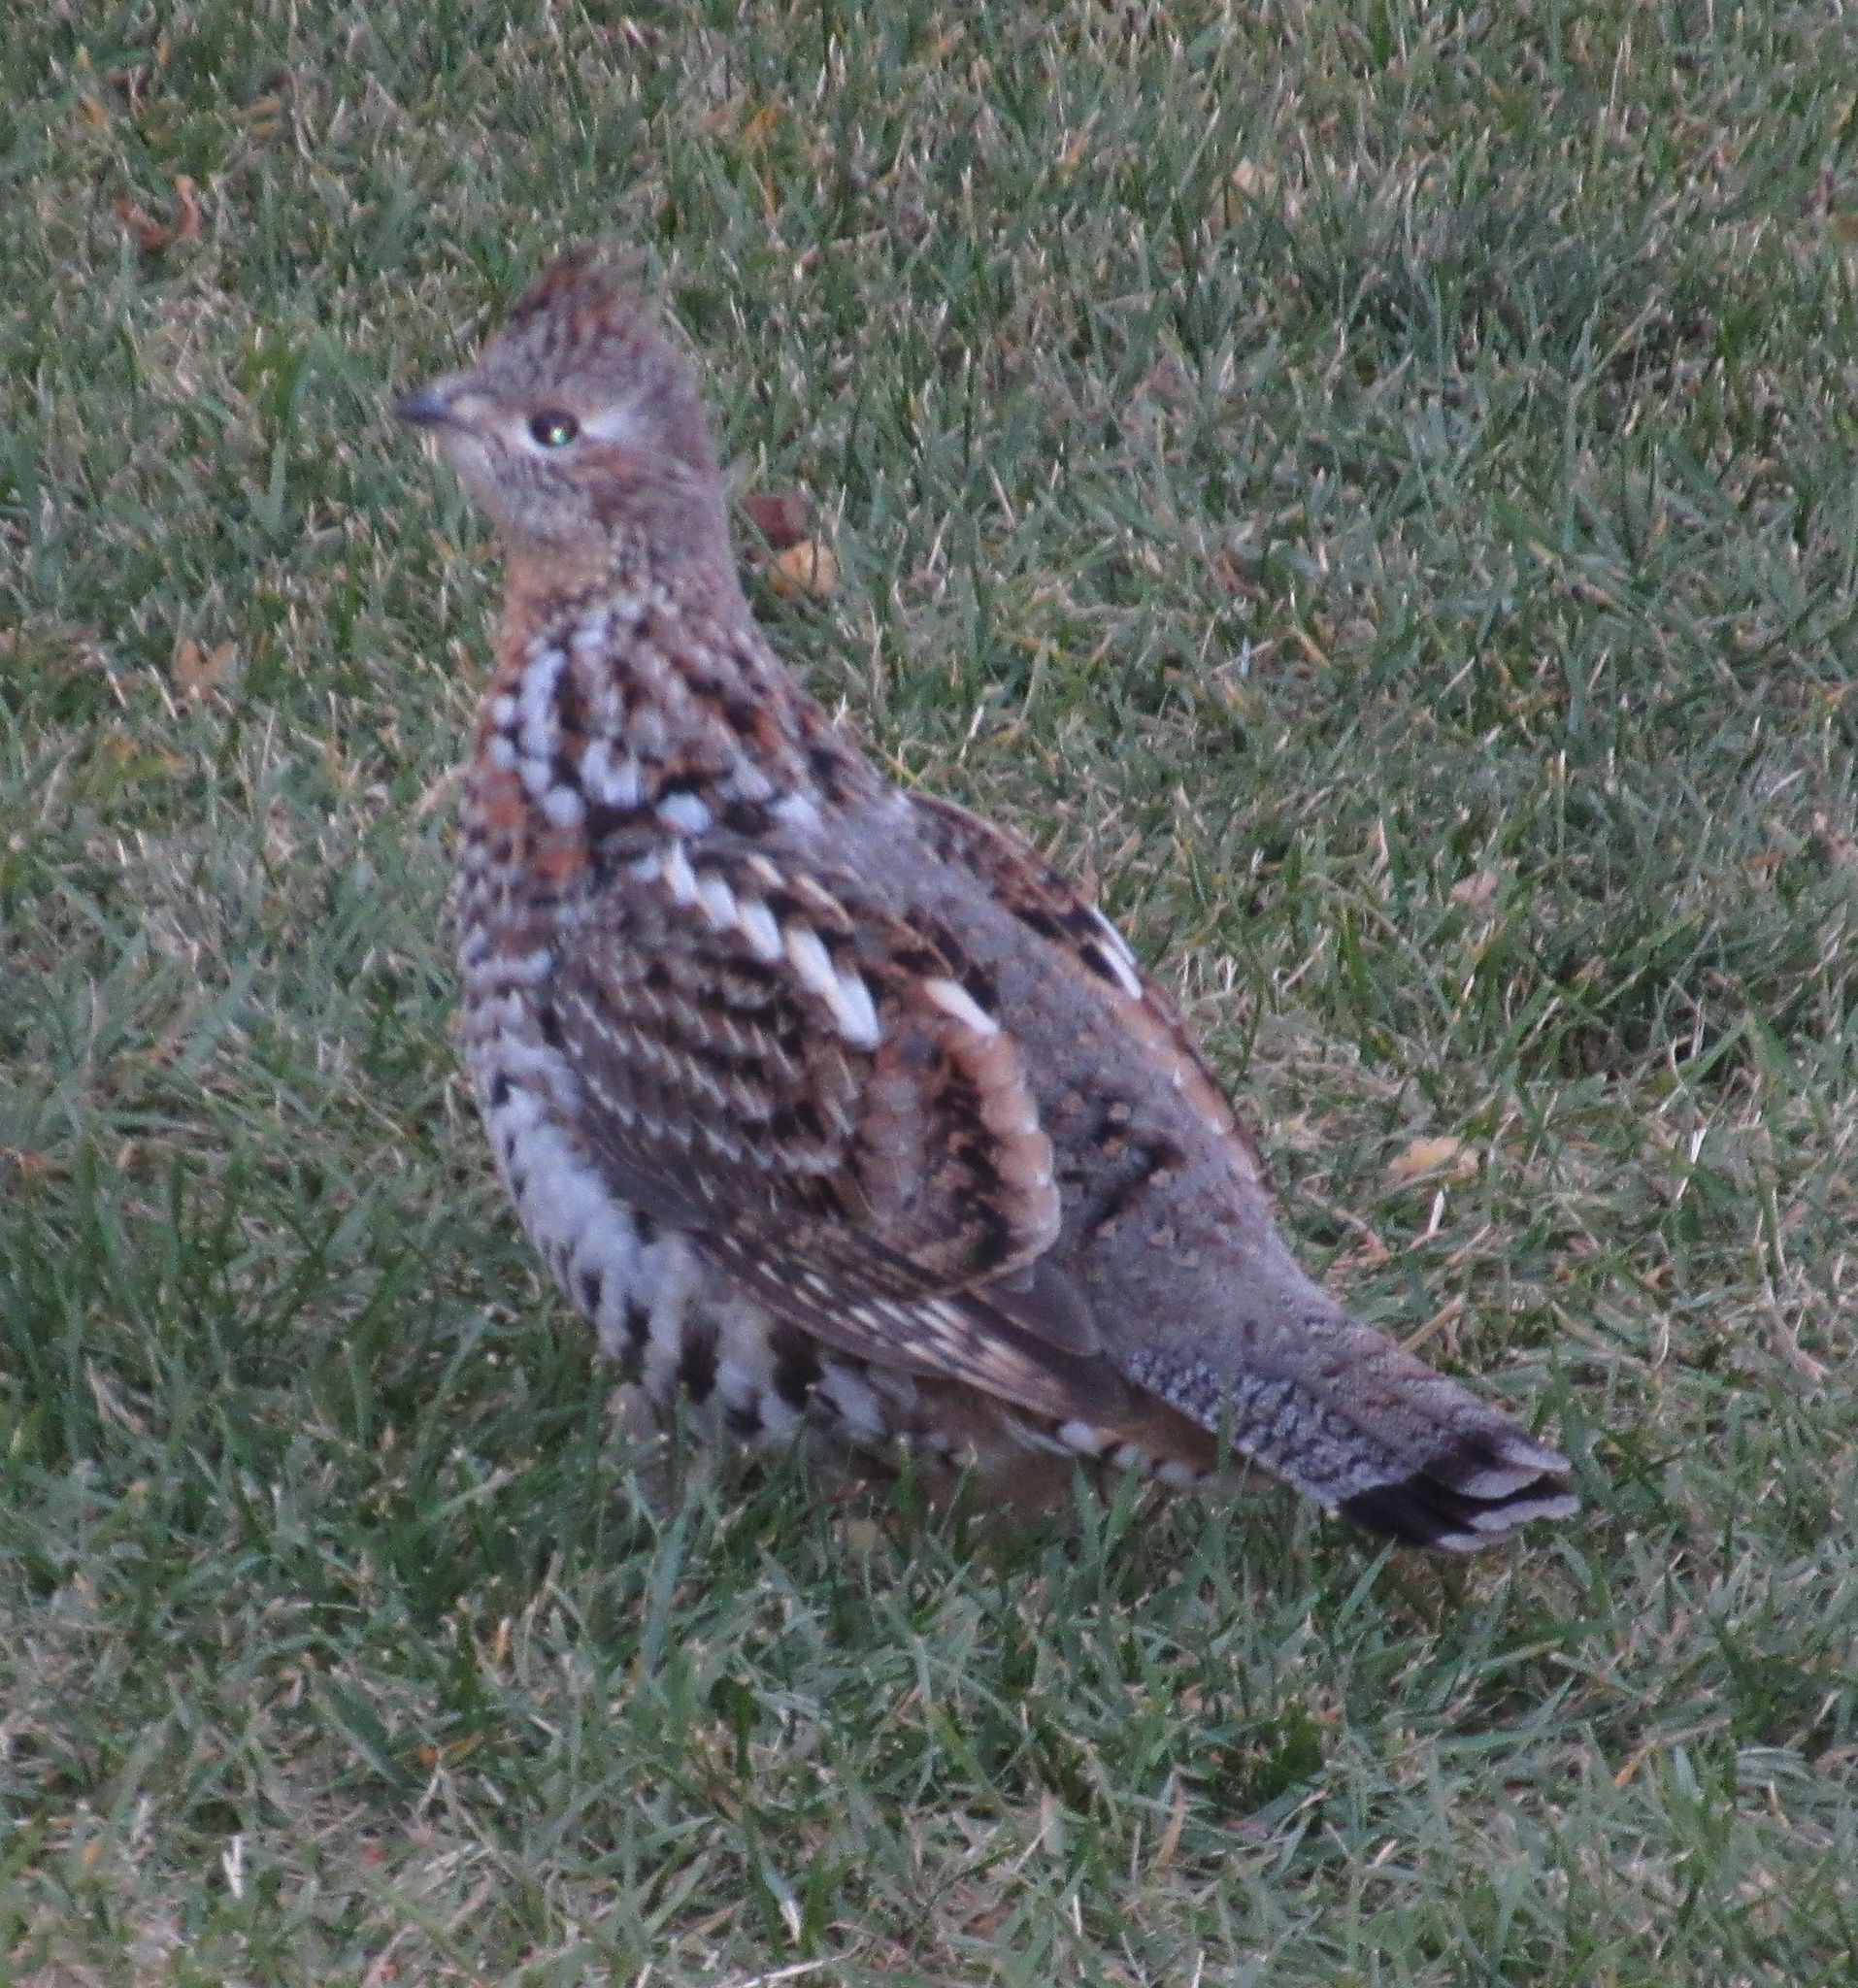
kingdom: Animalia
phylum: Chordata
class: Aves
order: Galliformes
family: Phasianidae
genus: Bonasa
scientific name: Bonasa umbellus
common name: Ruffed grouse
